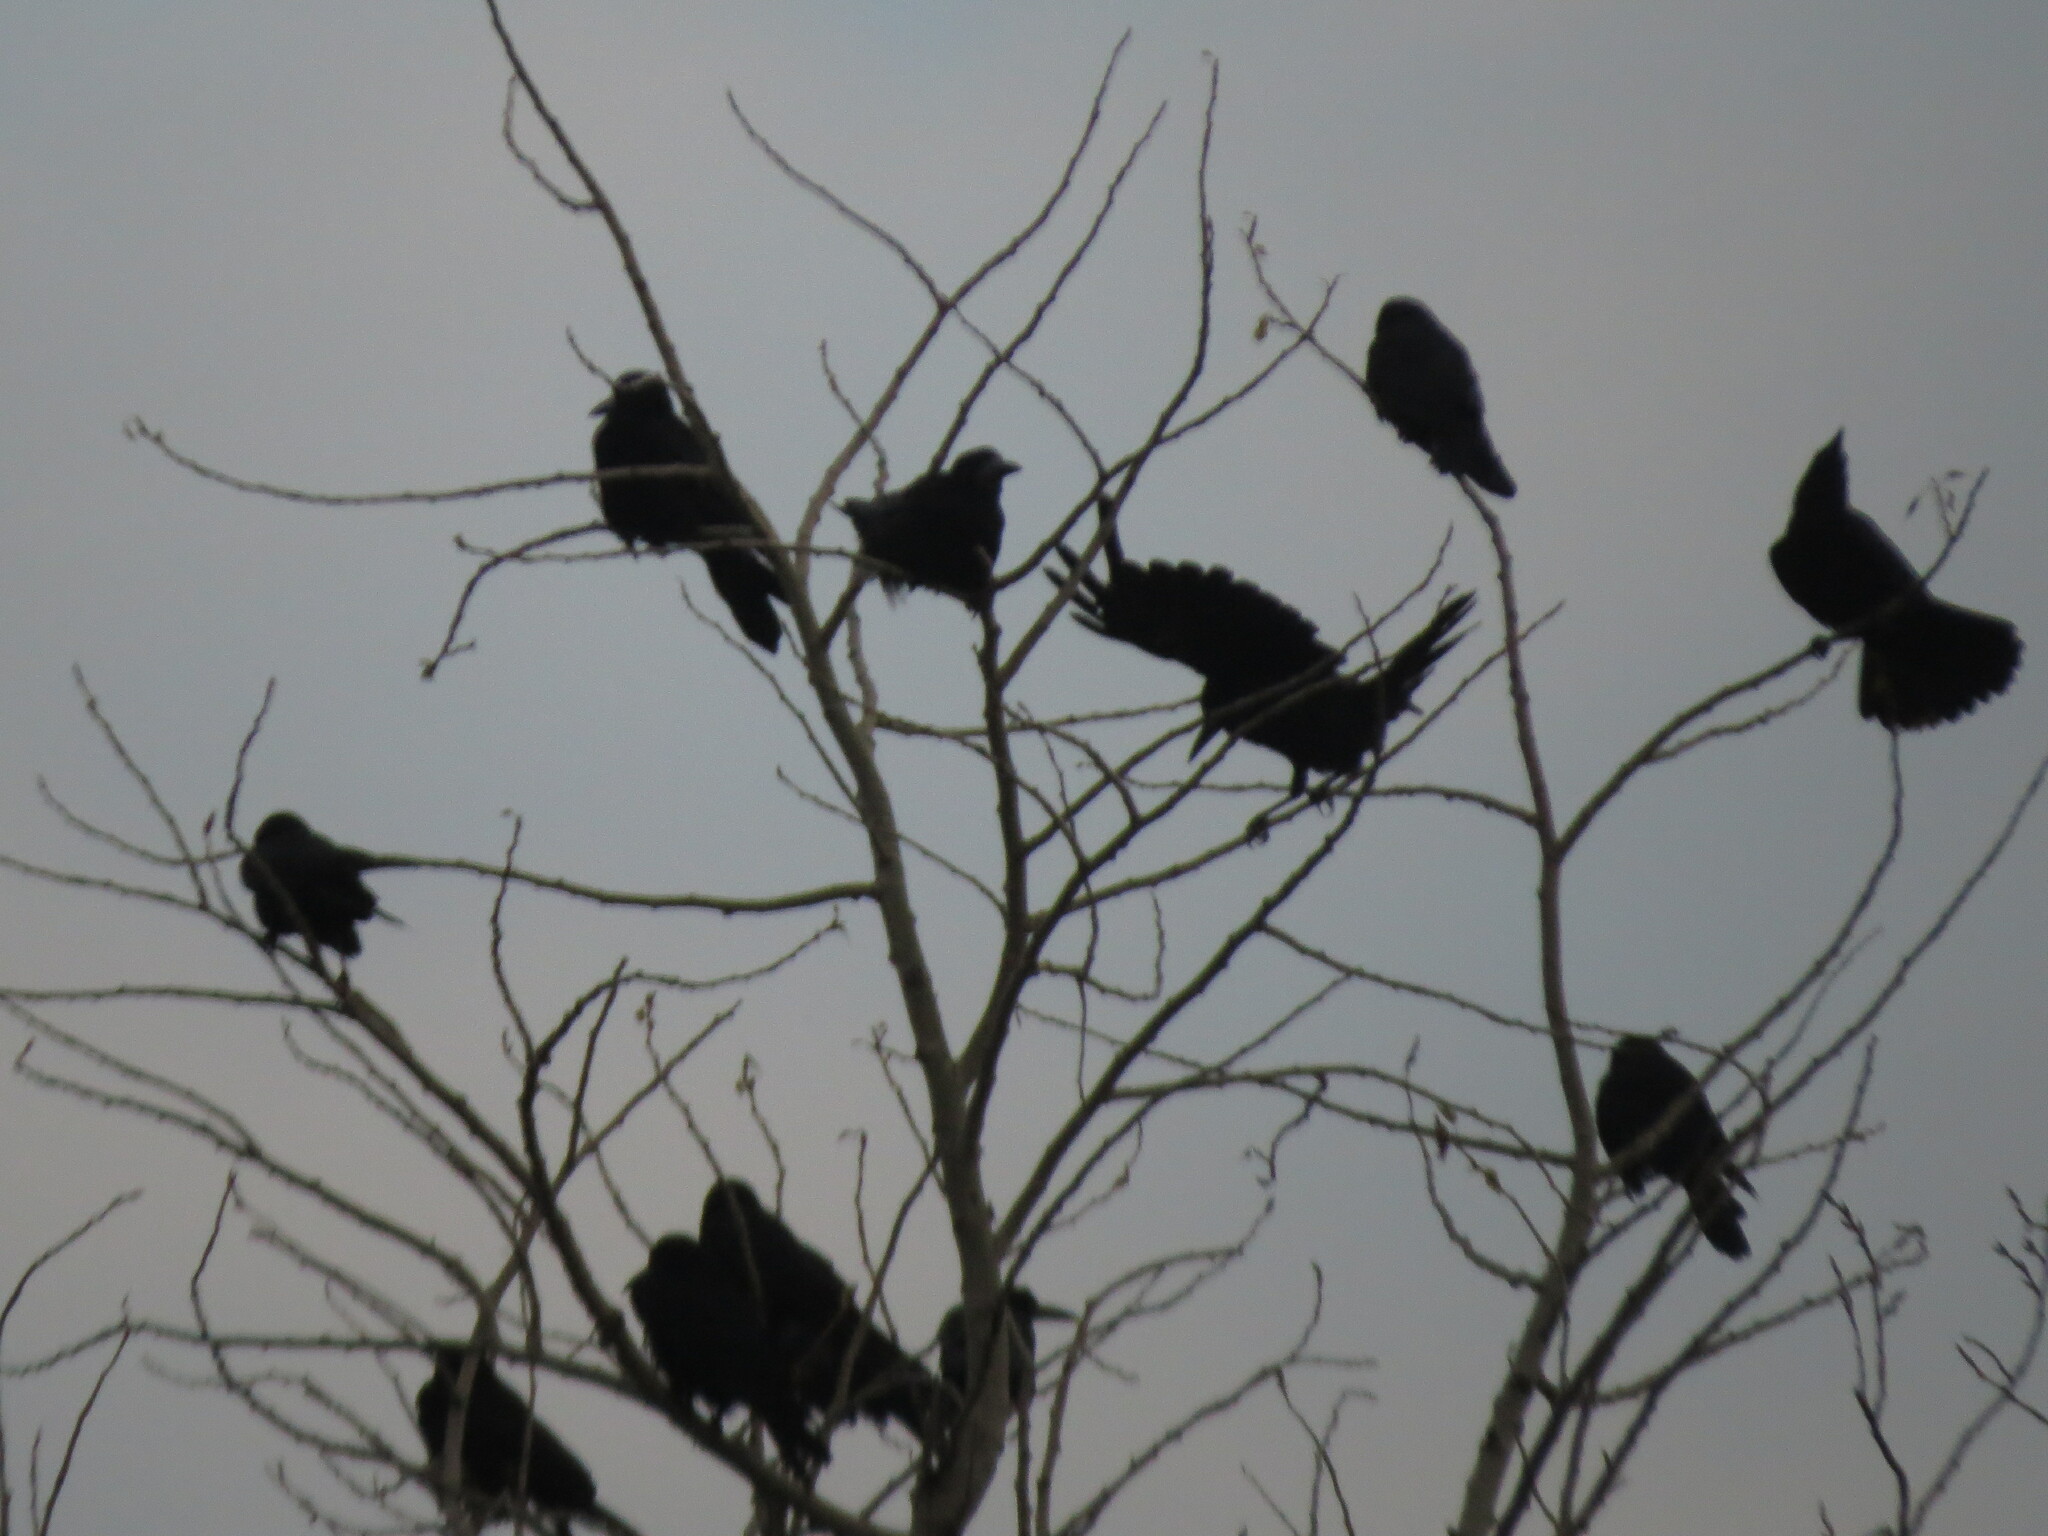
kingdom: Animalia
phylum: Chordata
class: Aves
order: Passeriformes
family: Corvidae
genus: Corvus
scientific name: Corvus frugilegus
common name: Rook
